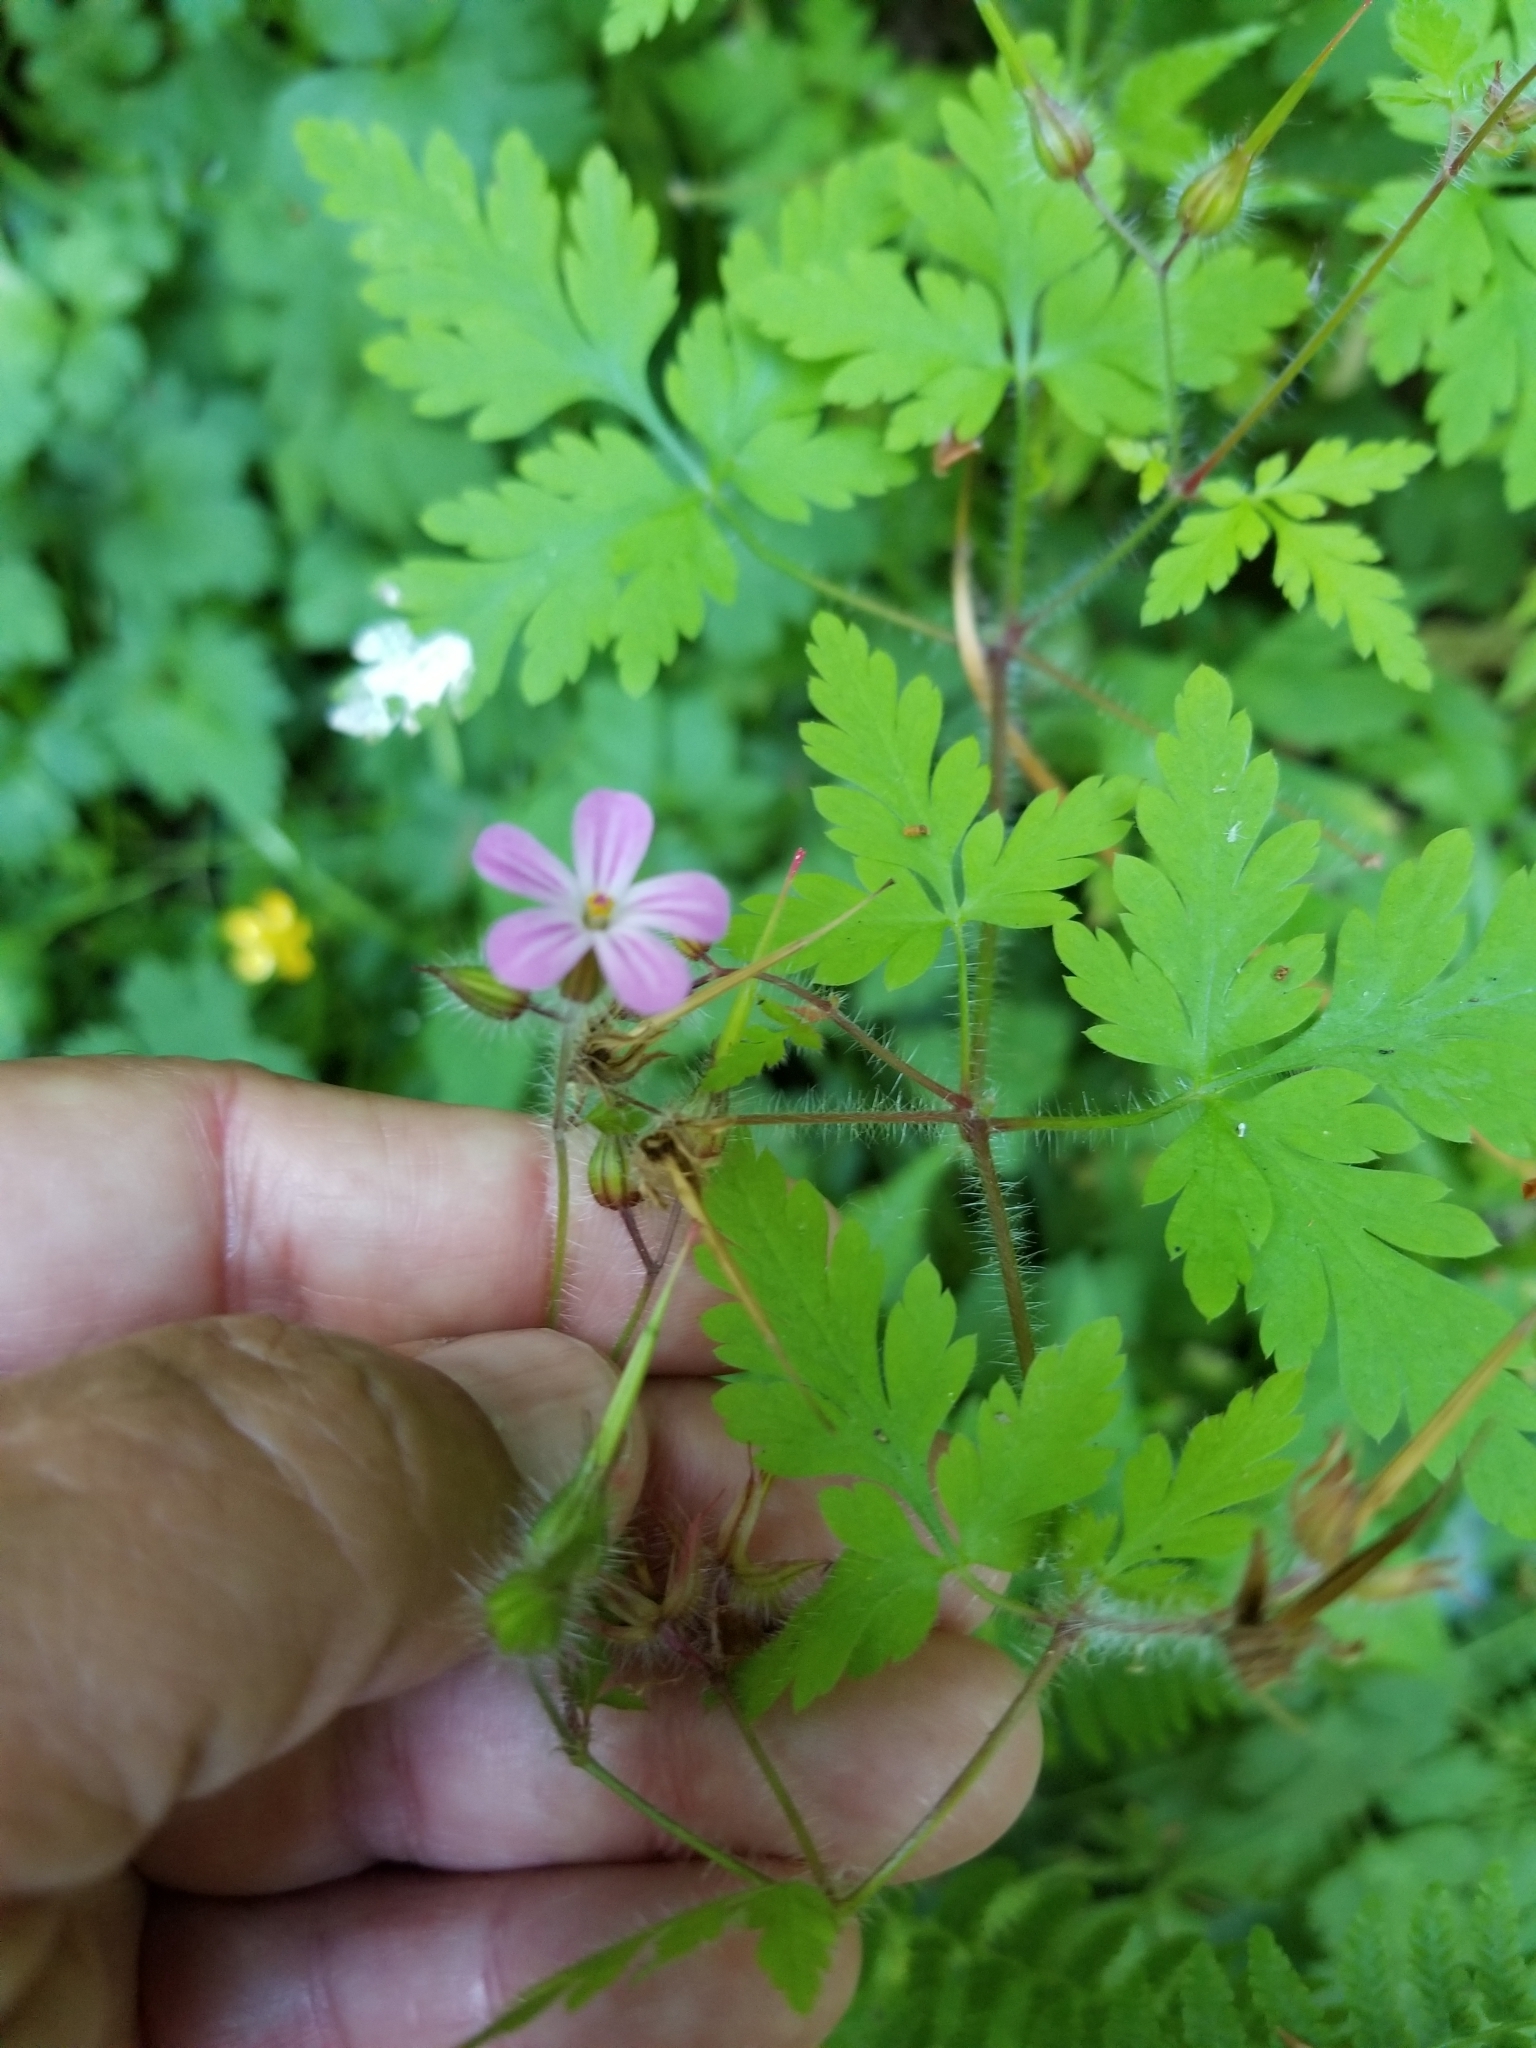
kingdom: Plantae
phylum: Tracheophyta
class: Magnoliopsida
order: Geraniales
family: Geraniaceae
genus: Geranium
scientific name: Geranium robertianum
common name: Herb-robert
